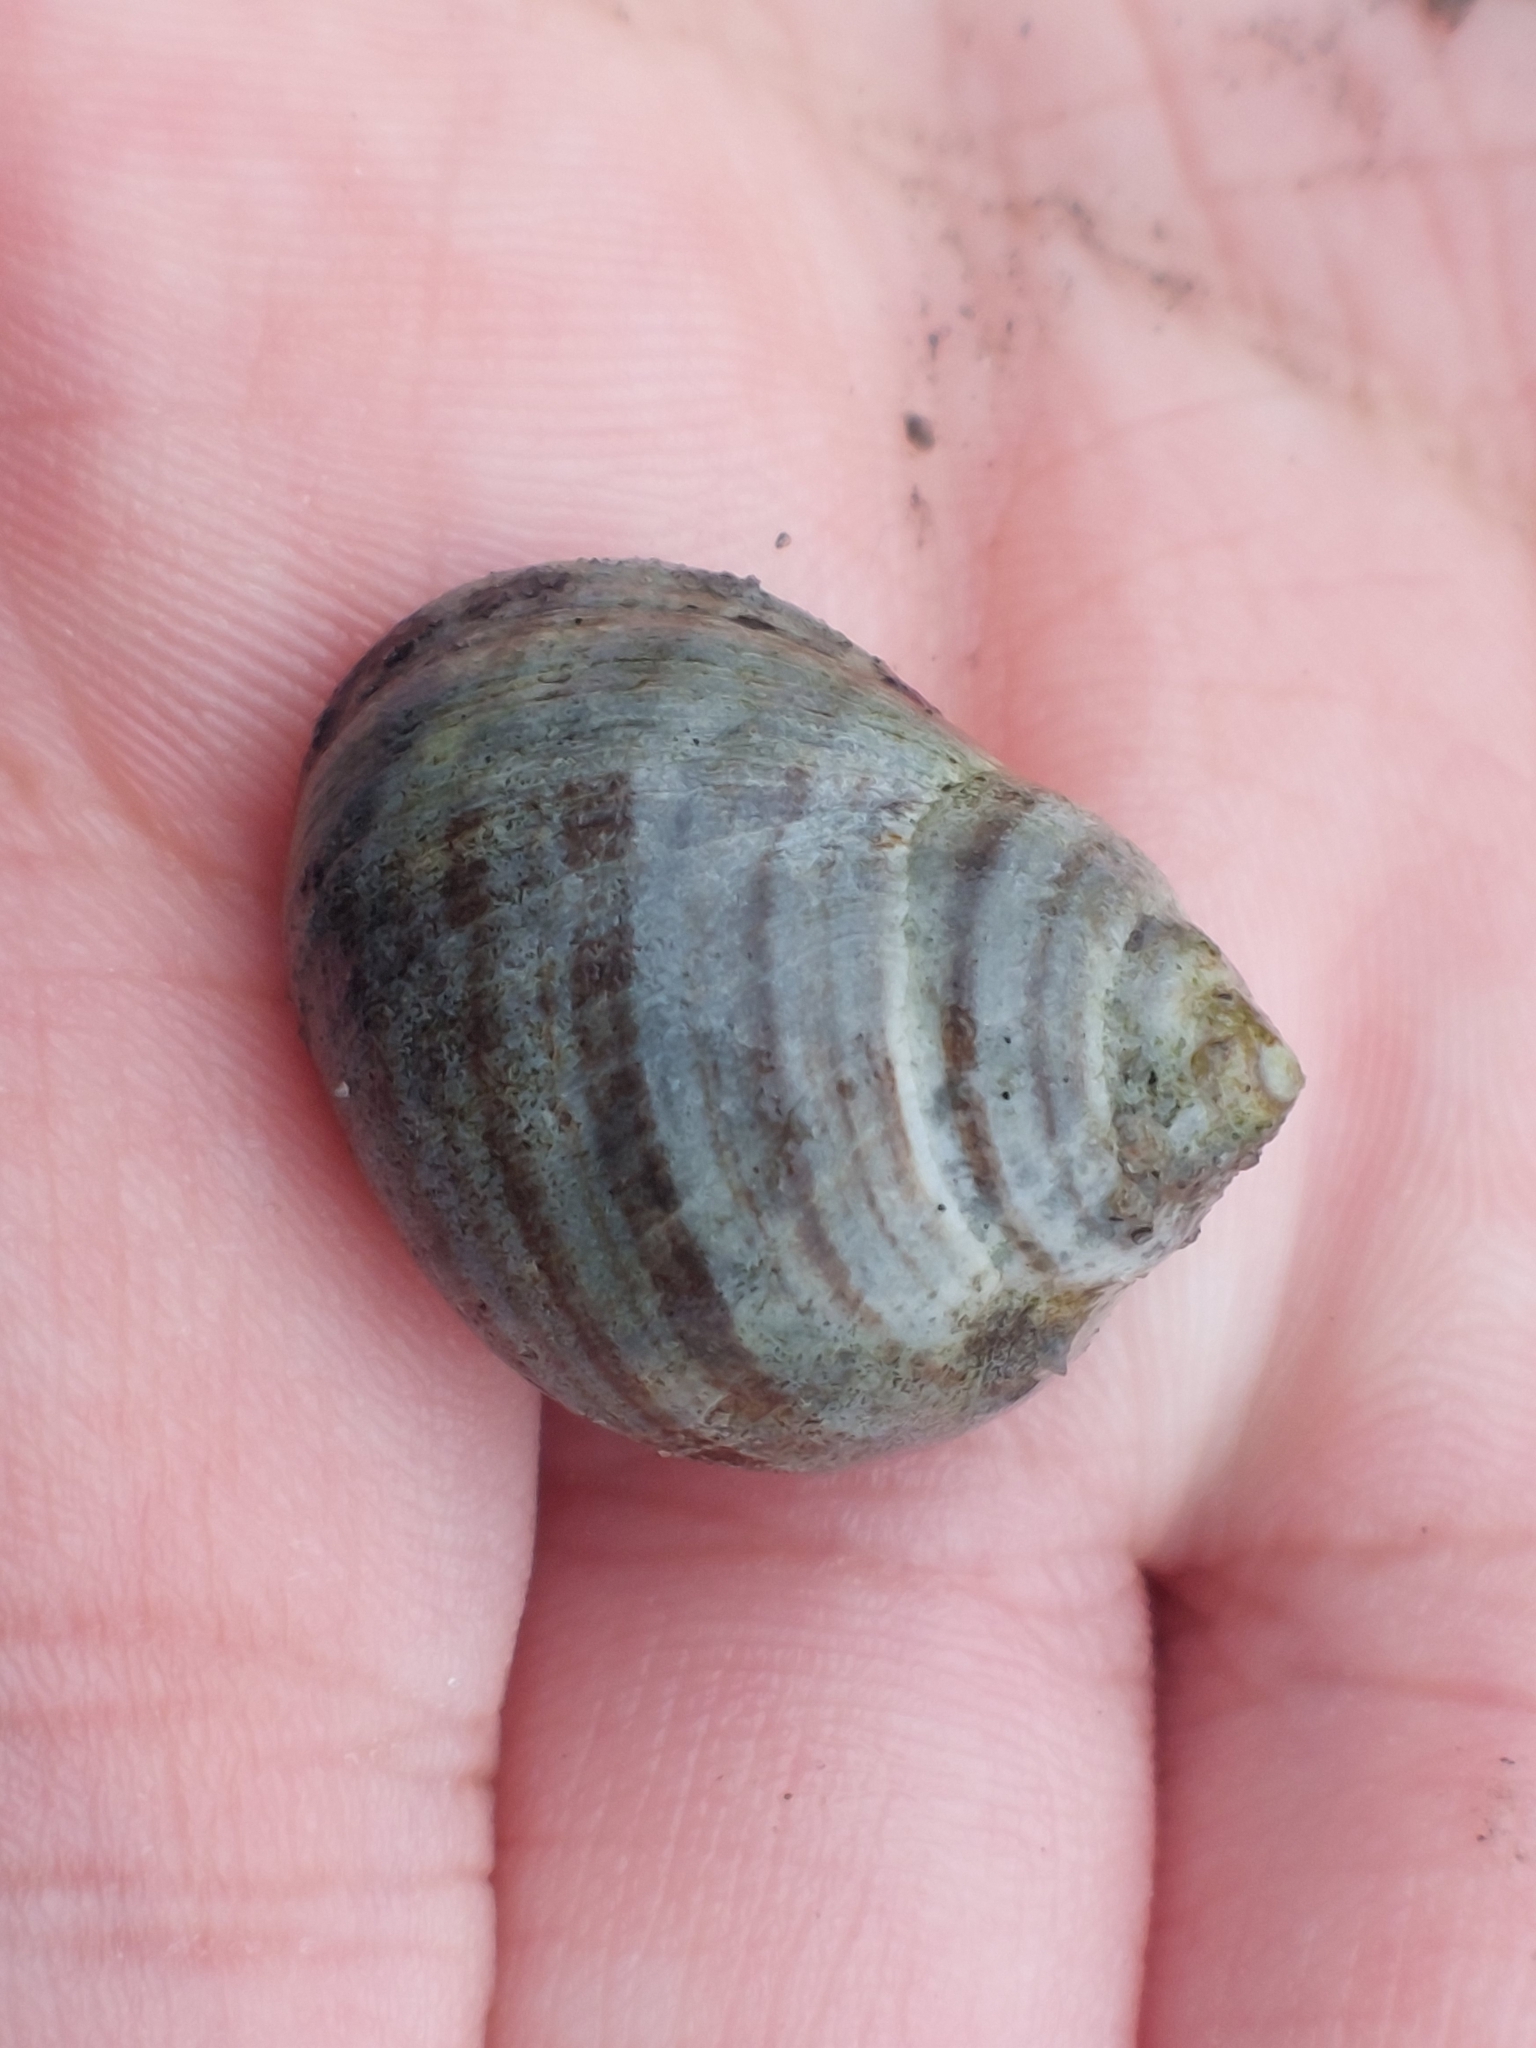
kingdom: Animalia
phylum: Mollusca
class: Gastropoda
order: Littorinimorpha
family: Littorinidae
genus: Littorina
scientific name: Littorina littorea
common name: Common periwinkle
